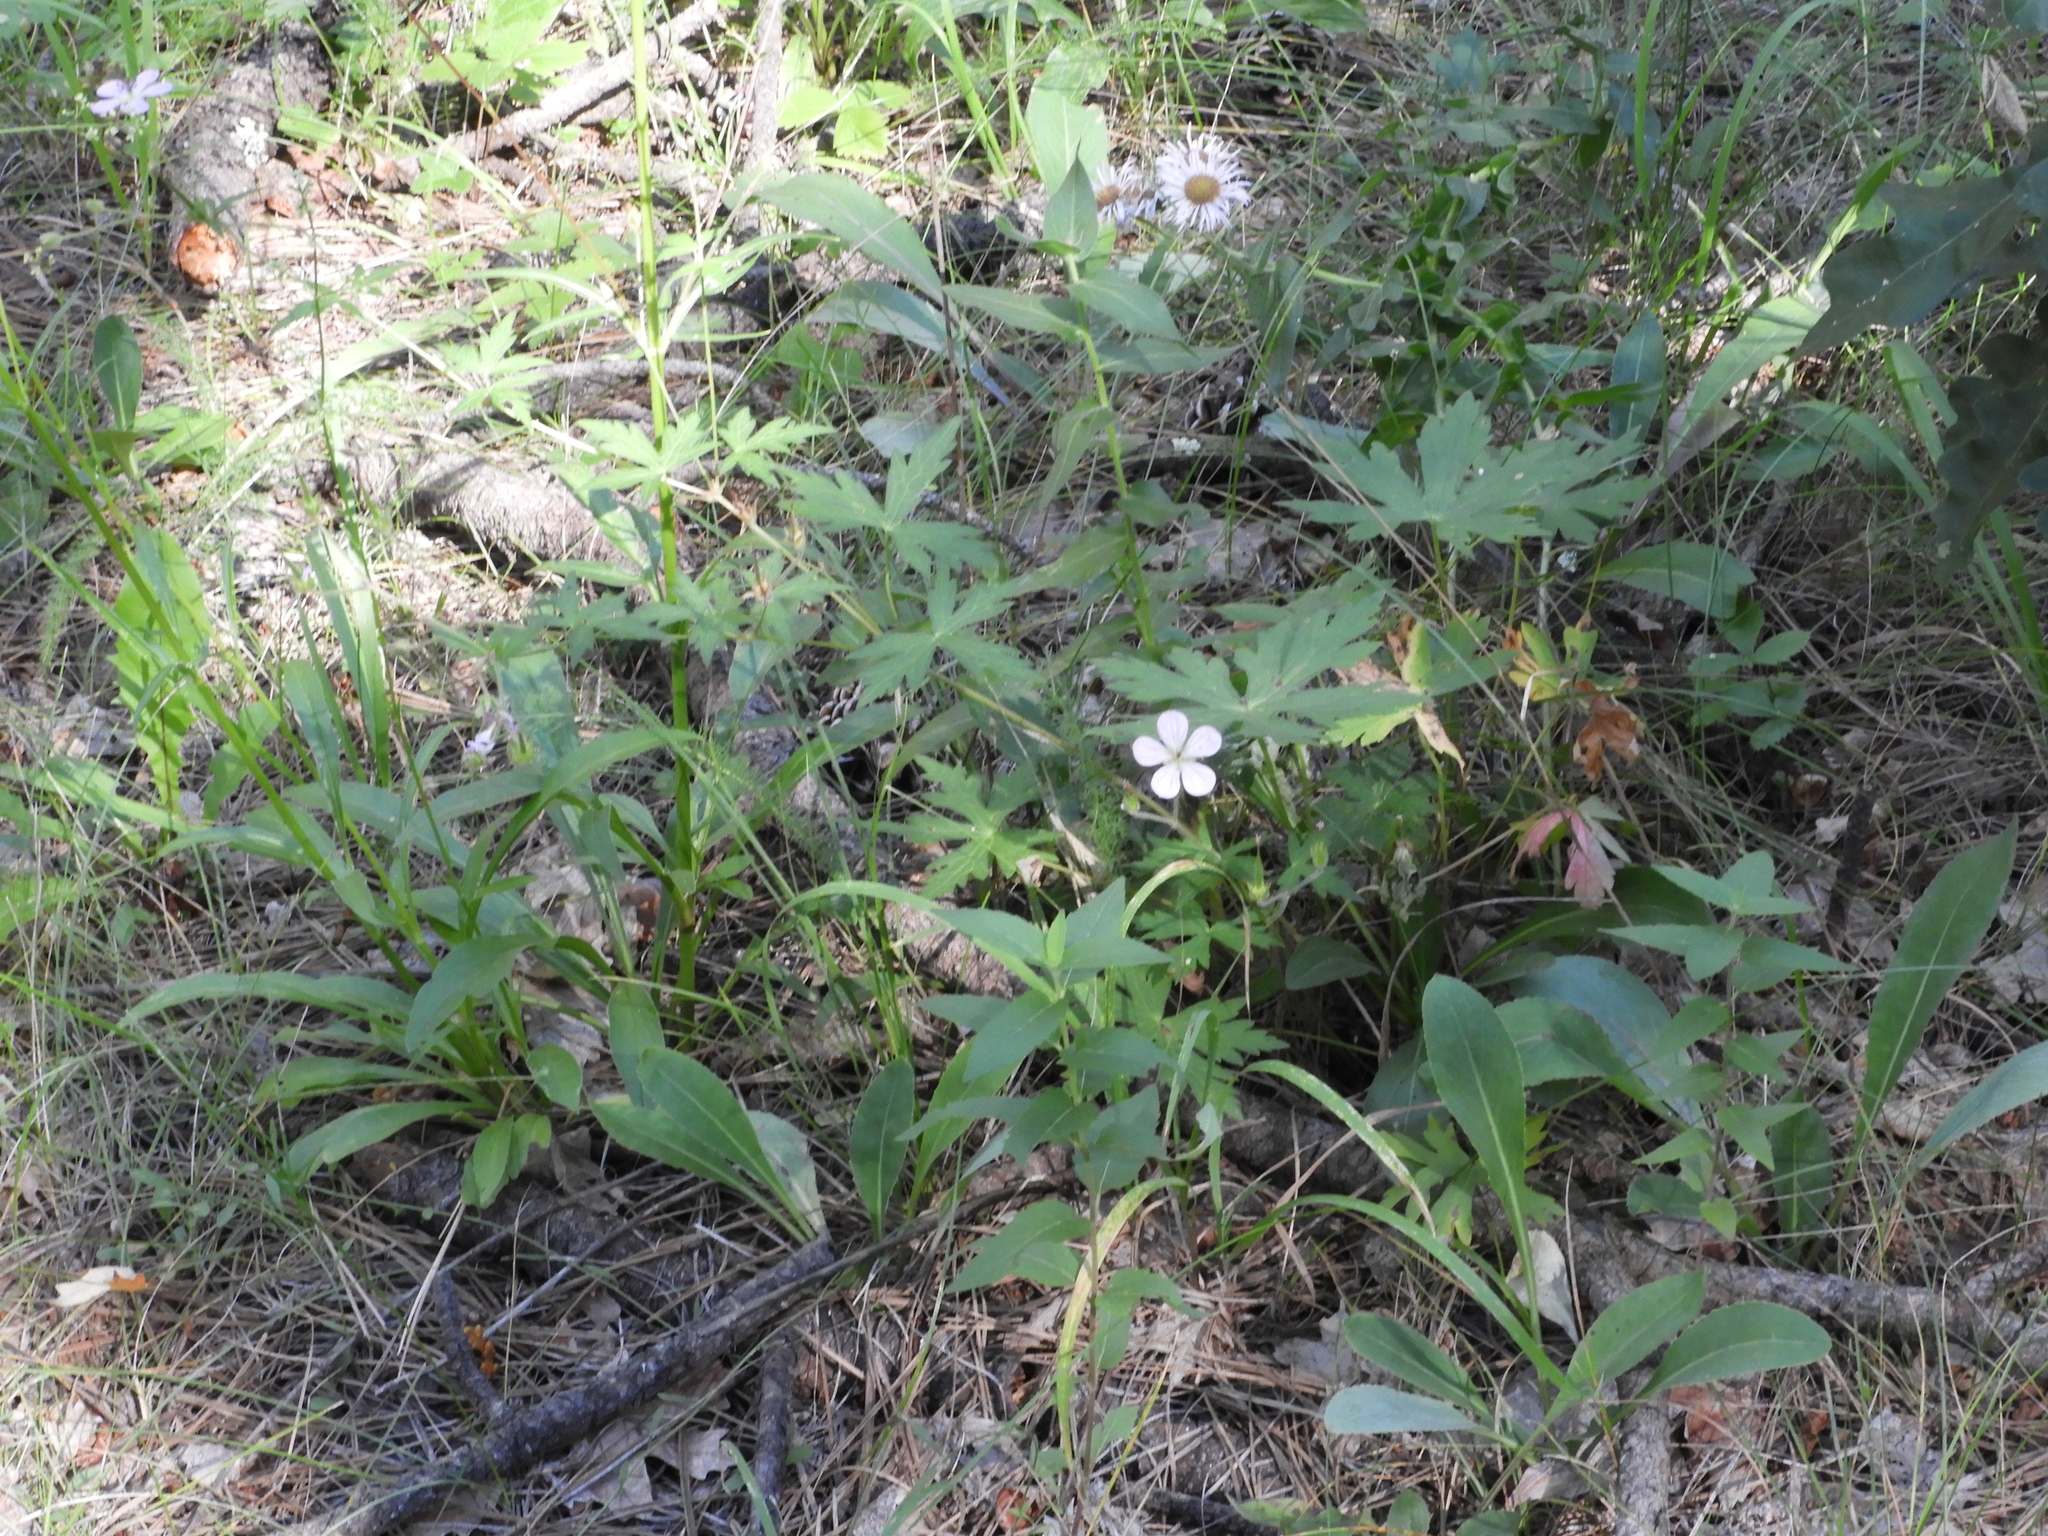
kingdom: Plantae
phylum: Tracheophyta
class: Magnoliopsida
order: Geraniales
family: Geraniaceae
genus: Geranium
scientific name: Geranium richardsonii
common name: Richardson's crane's-bill
